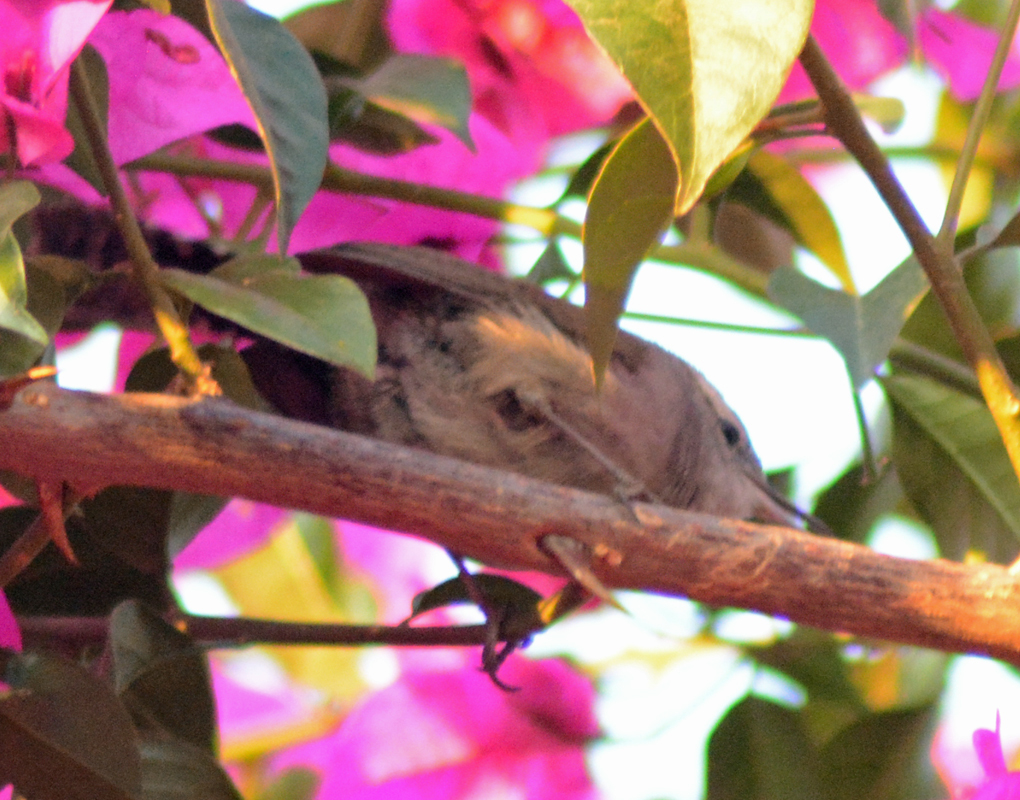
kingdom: Animalia
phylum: Chordata
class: Aves
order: Passeriformes
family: Troglodytidae
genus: Thryomanes
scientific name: Thryomanes bewickii
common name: Bewick's wren
